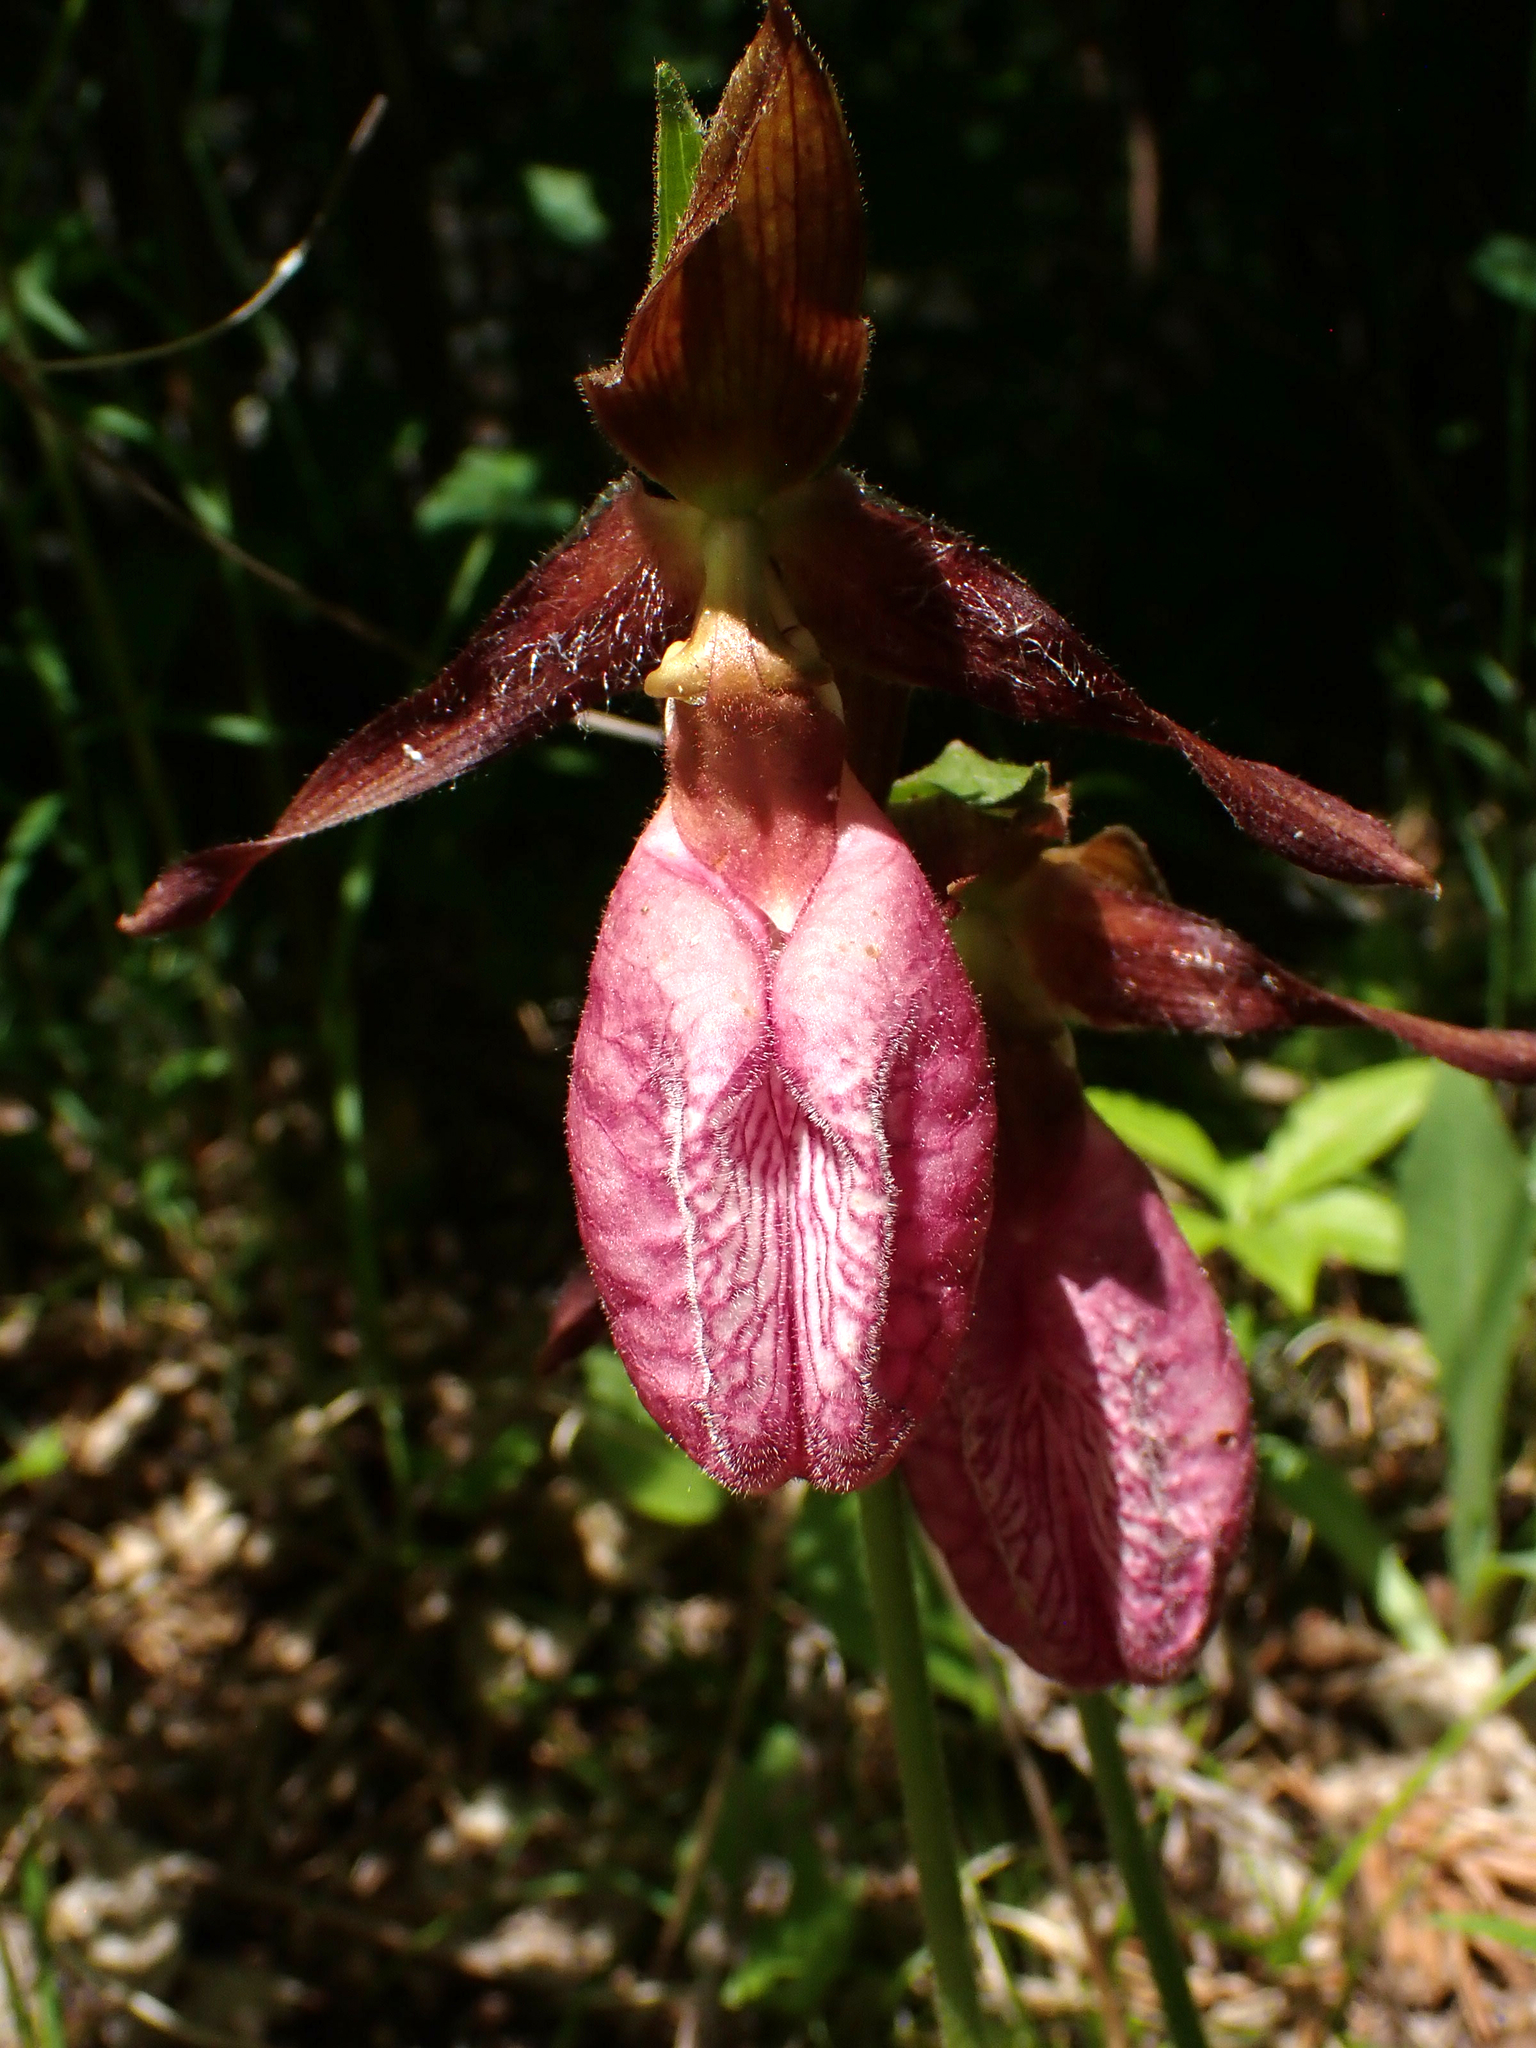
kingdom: Plantae
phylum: Tracheophyta
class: Liliopsida
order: Asparagales
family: Orchidaceae
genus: Cypripedium
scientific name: Cypripedium acaule
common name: Pink lady's-slipper
